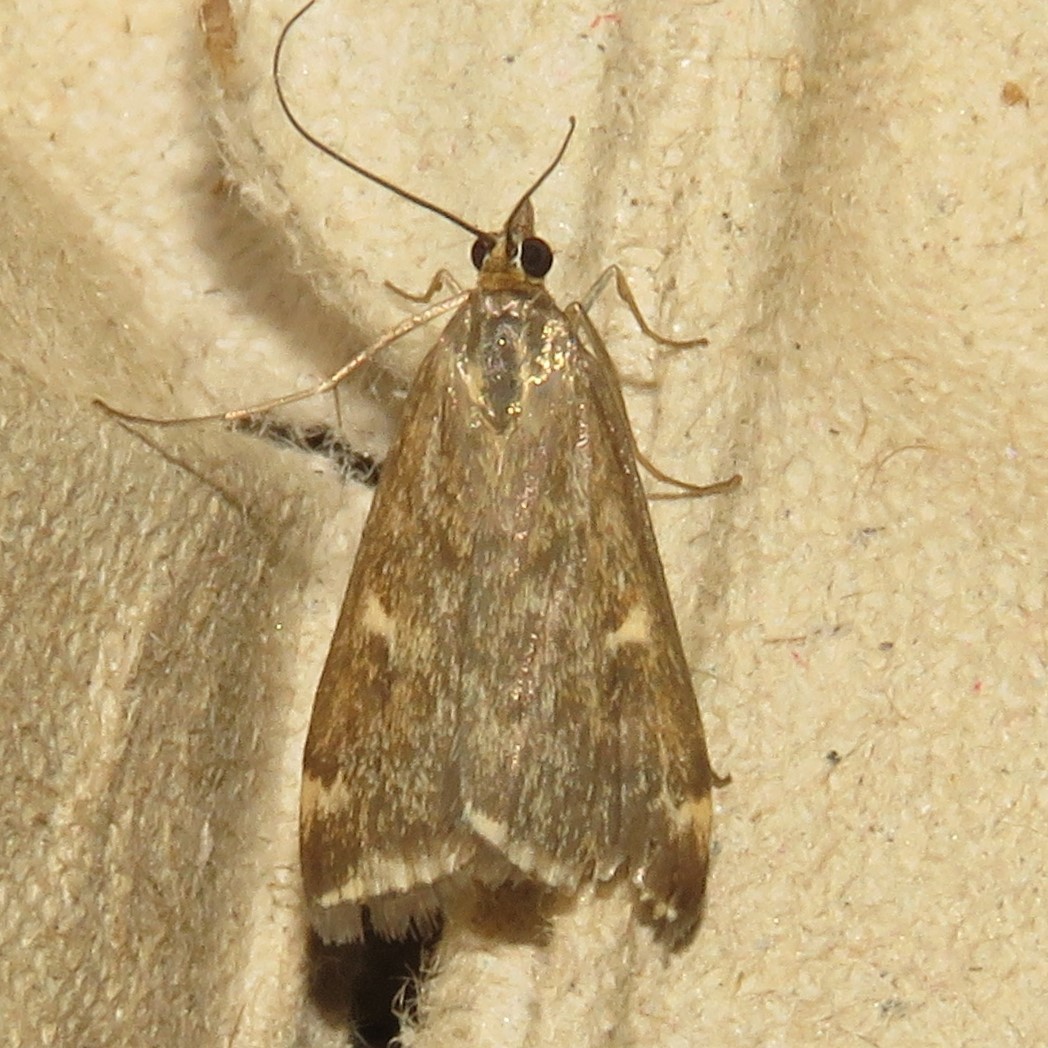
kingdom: Animalia
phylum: Arthropoda
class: Insecta
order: Lepidoptera
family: Crambidae
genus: Loxostege
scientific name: Loxostege
